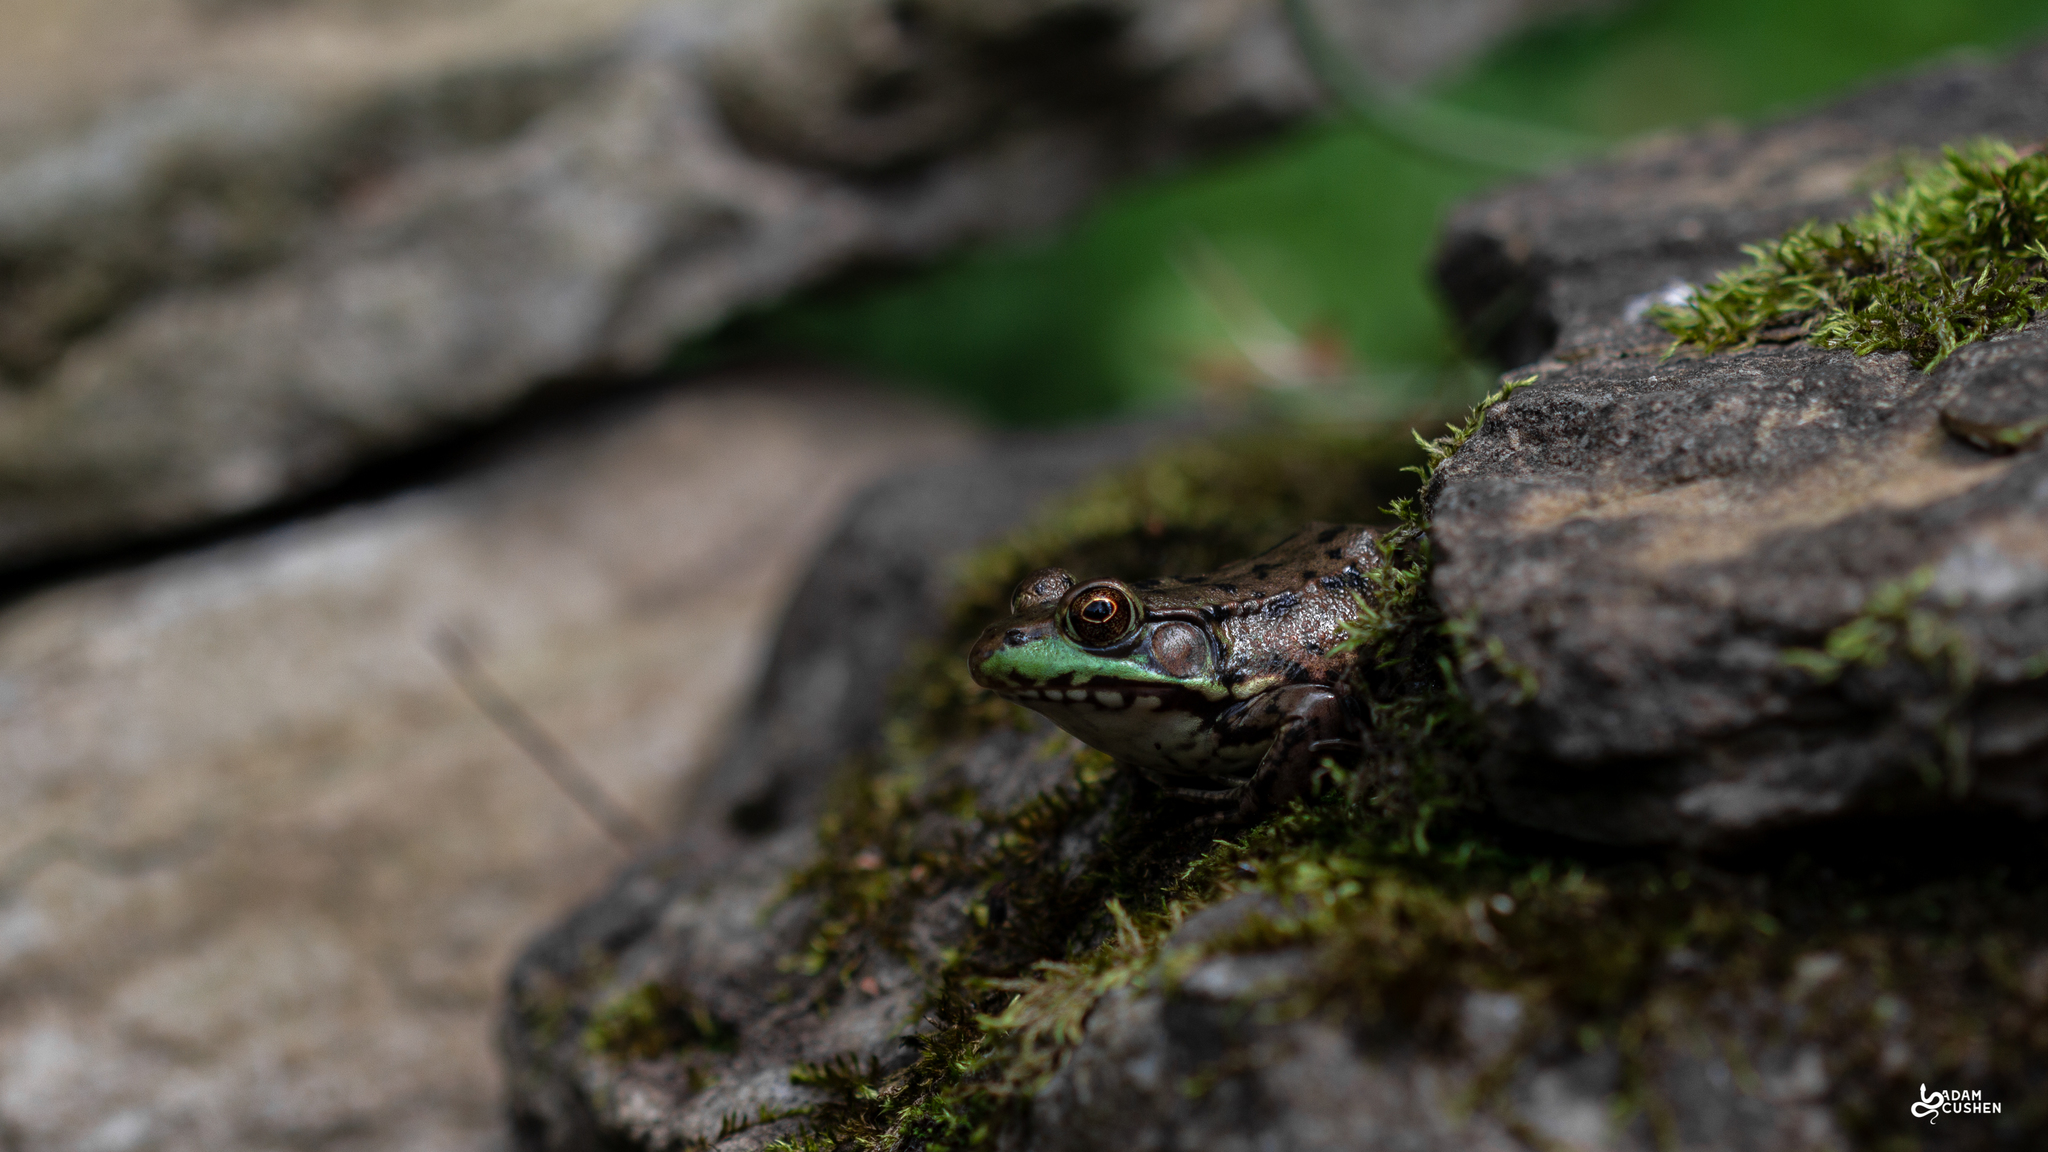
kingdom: Animalia
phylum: Chordata
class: Amphibia
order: Anura
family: Ranidae
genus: Lithobates
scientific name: Lithobates clamitans
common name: Green frog
